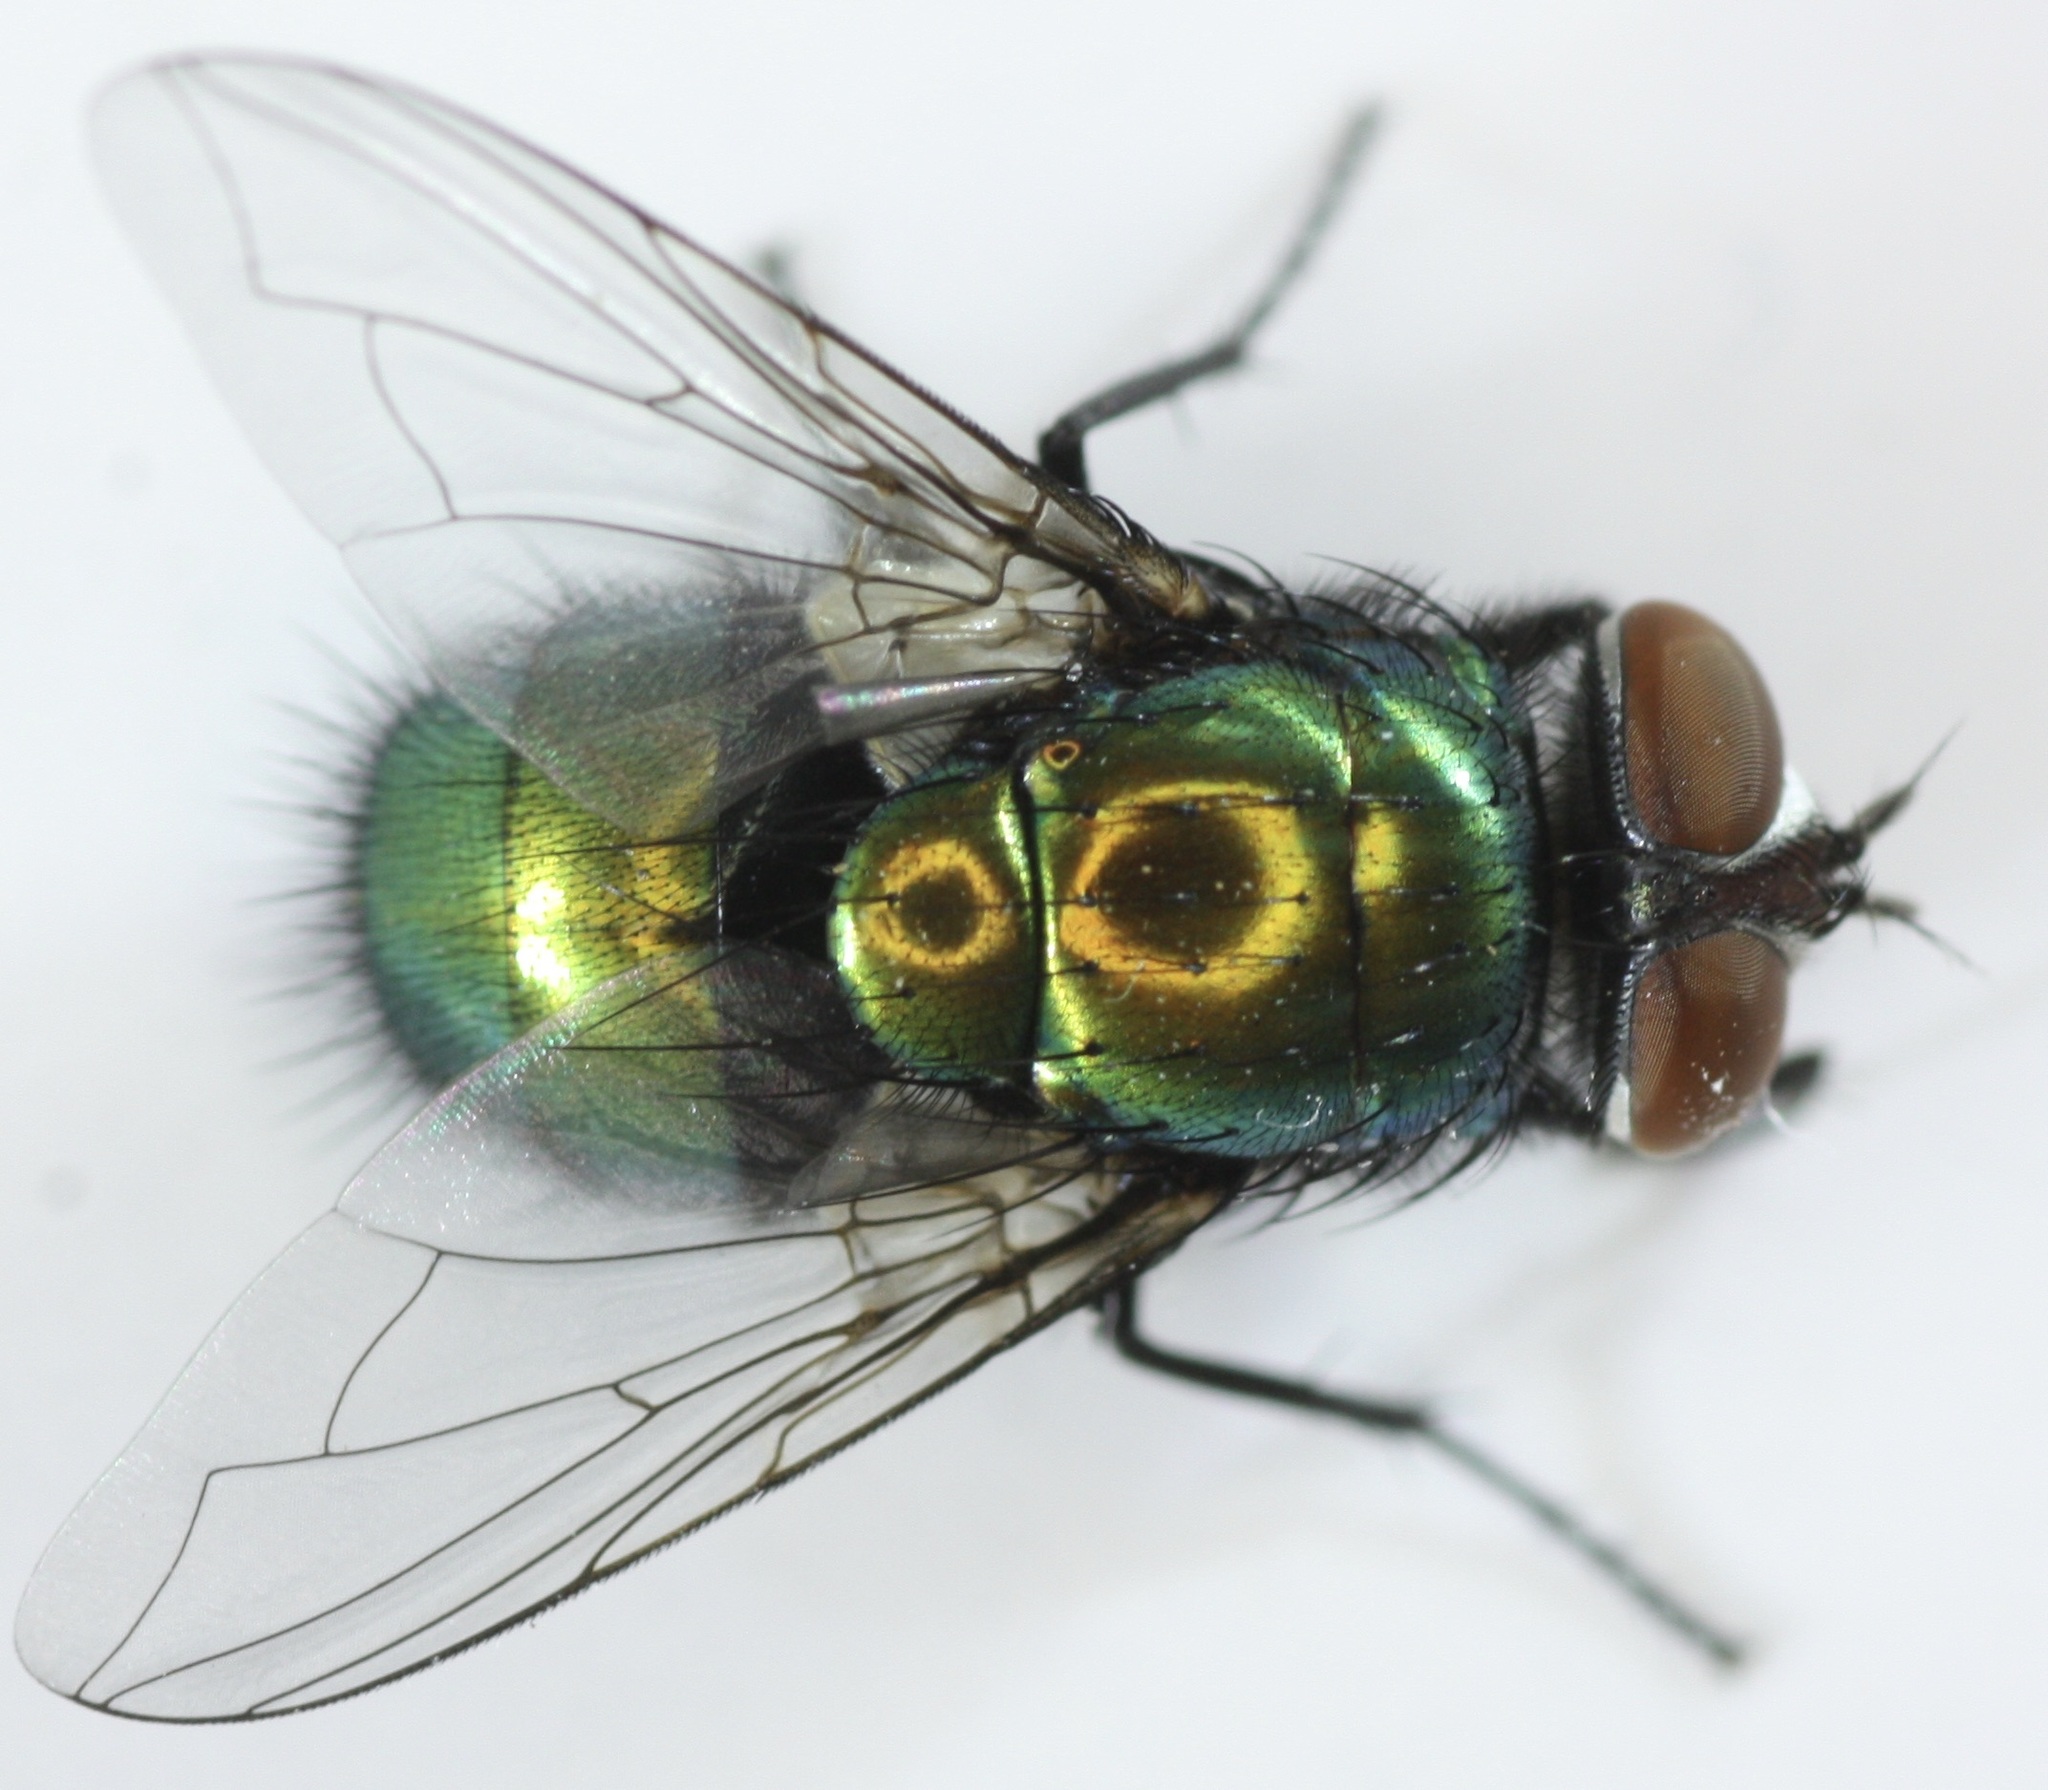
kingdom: Animalia
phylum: Arthropoda
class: Insecta
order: Diptera
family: Calliphoridae
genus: Lucilia
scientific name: Lucilia sericata
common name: Blow fly
